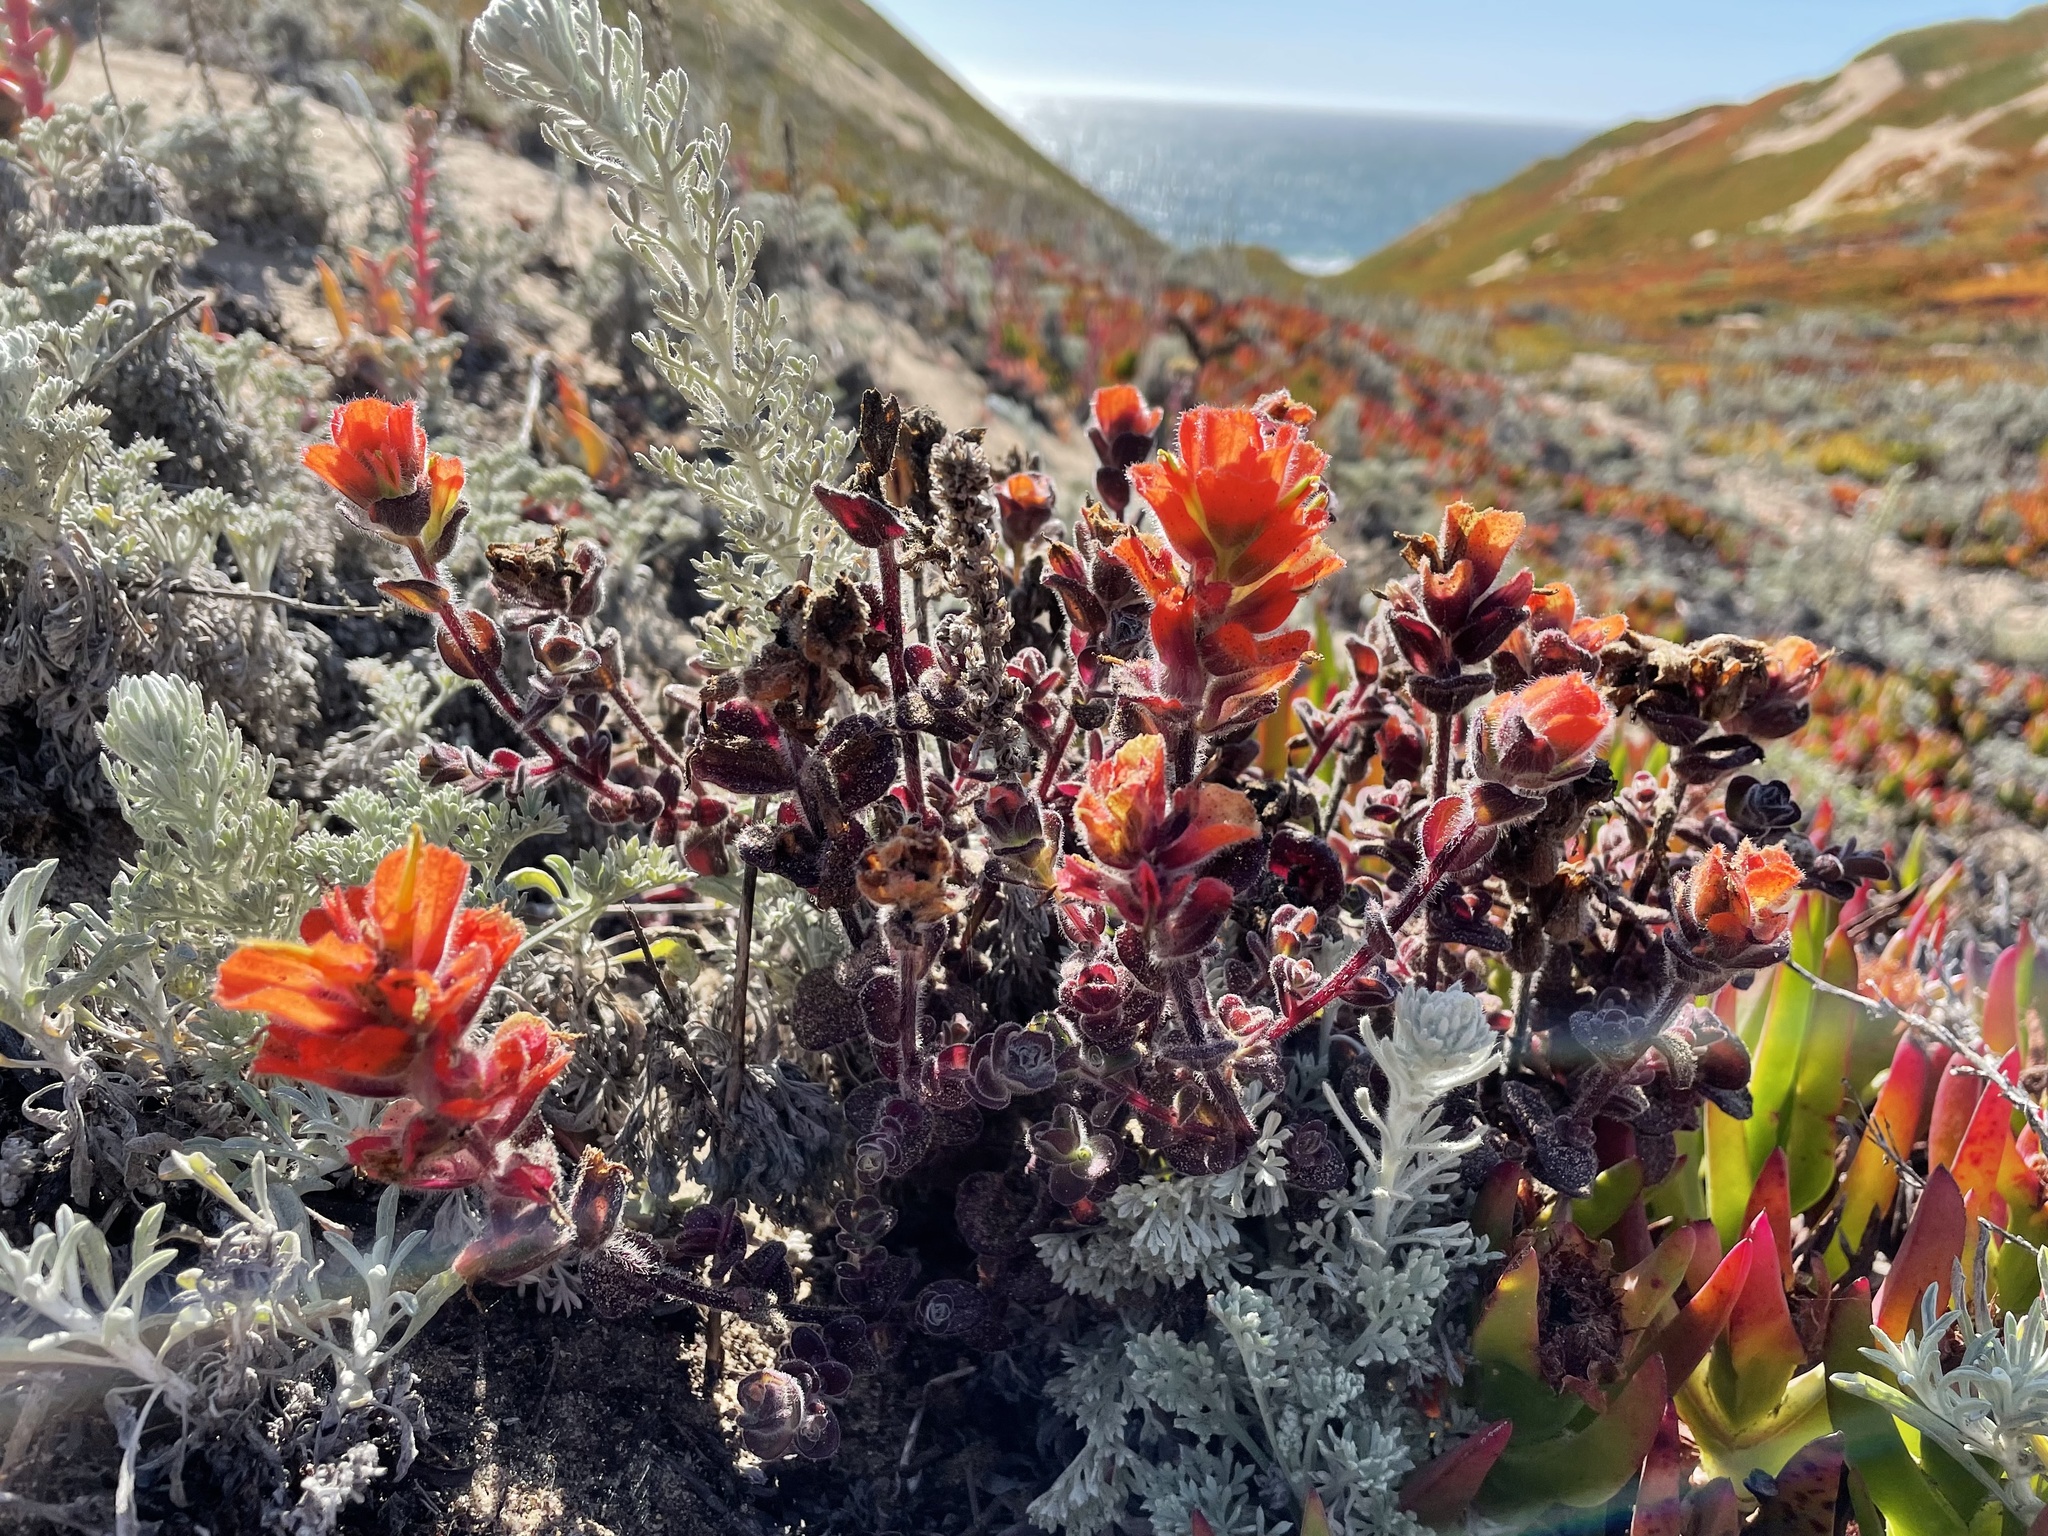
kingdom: Plantae
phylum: Tracheophyta
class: Magnoliopsida
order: Lamiales
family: Orobanchaceae
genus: Castilleja
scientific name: Castilleja latifolia
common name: Monterey indian paintbrush
